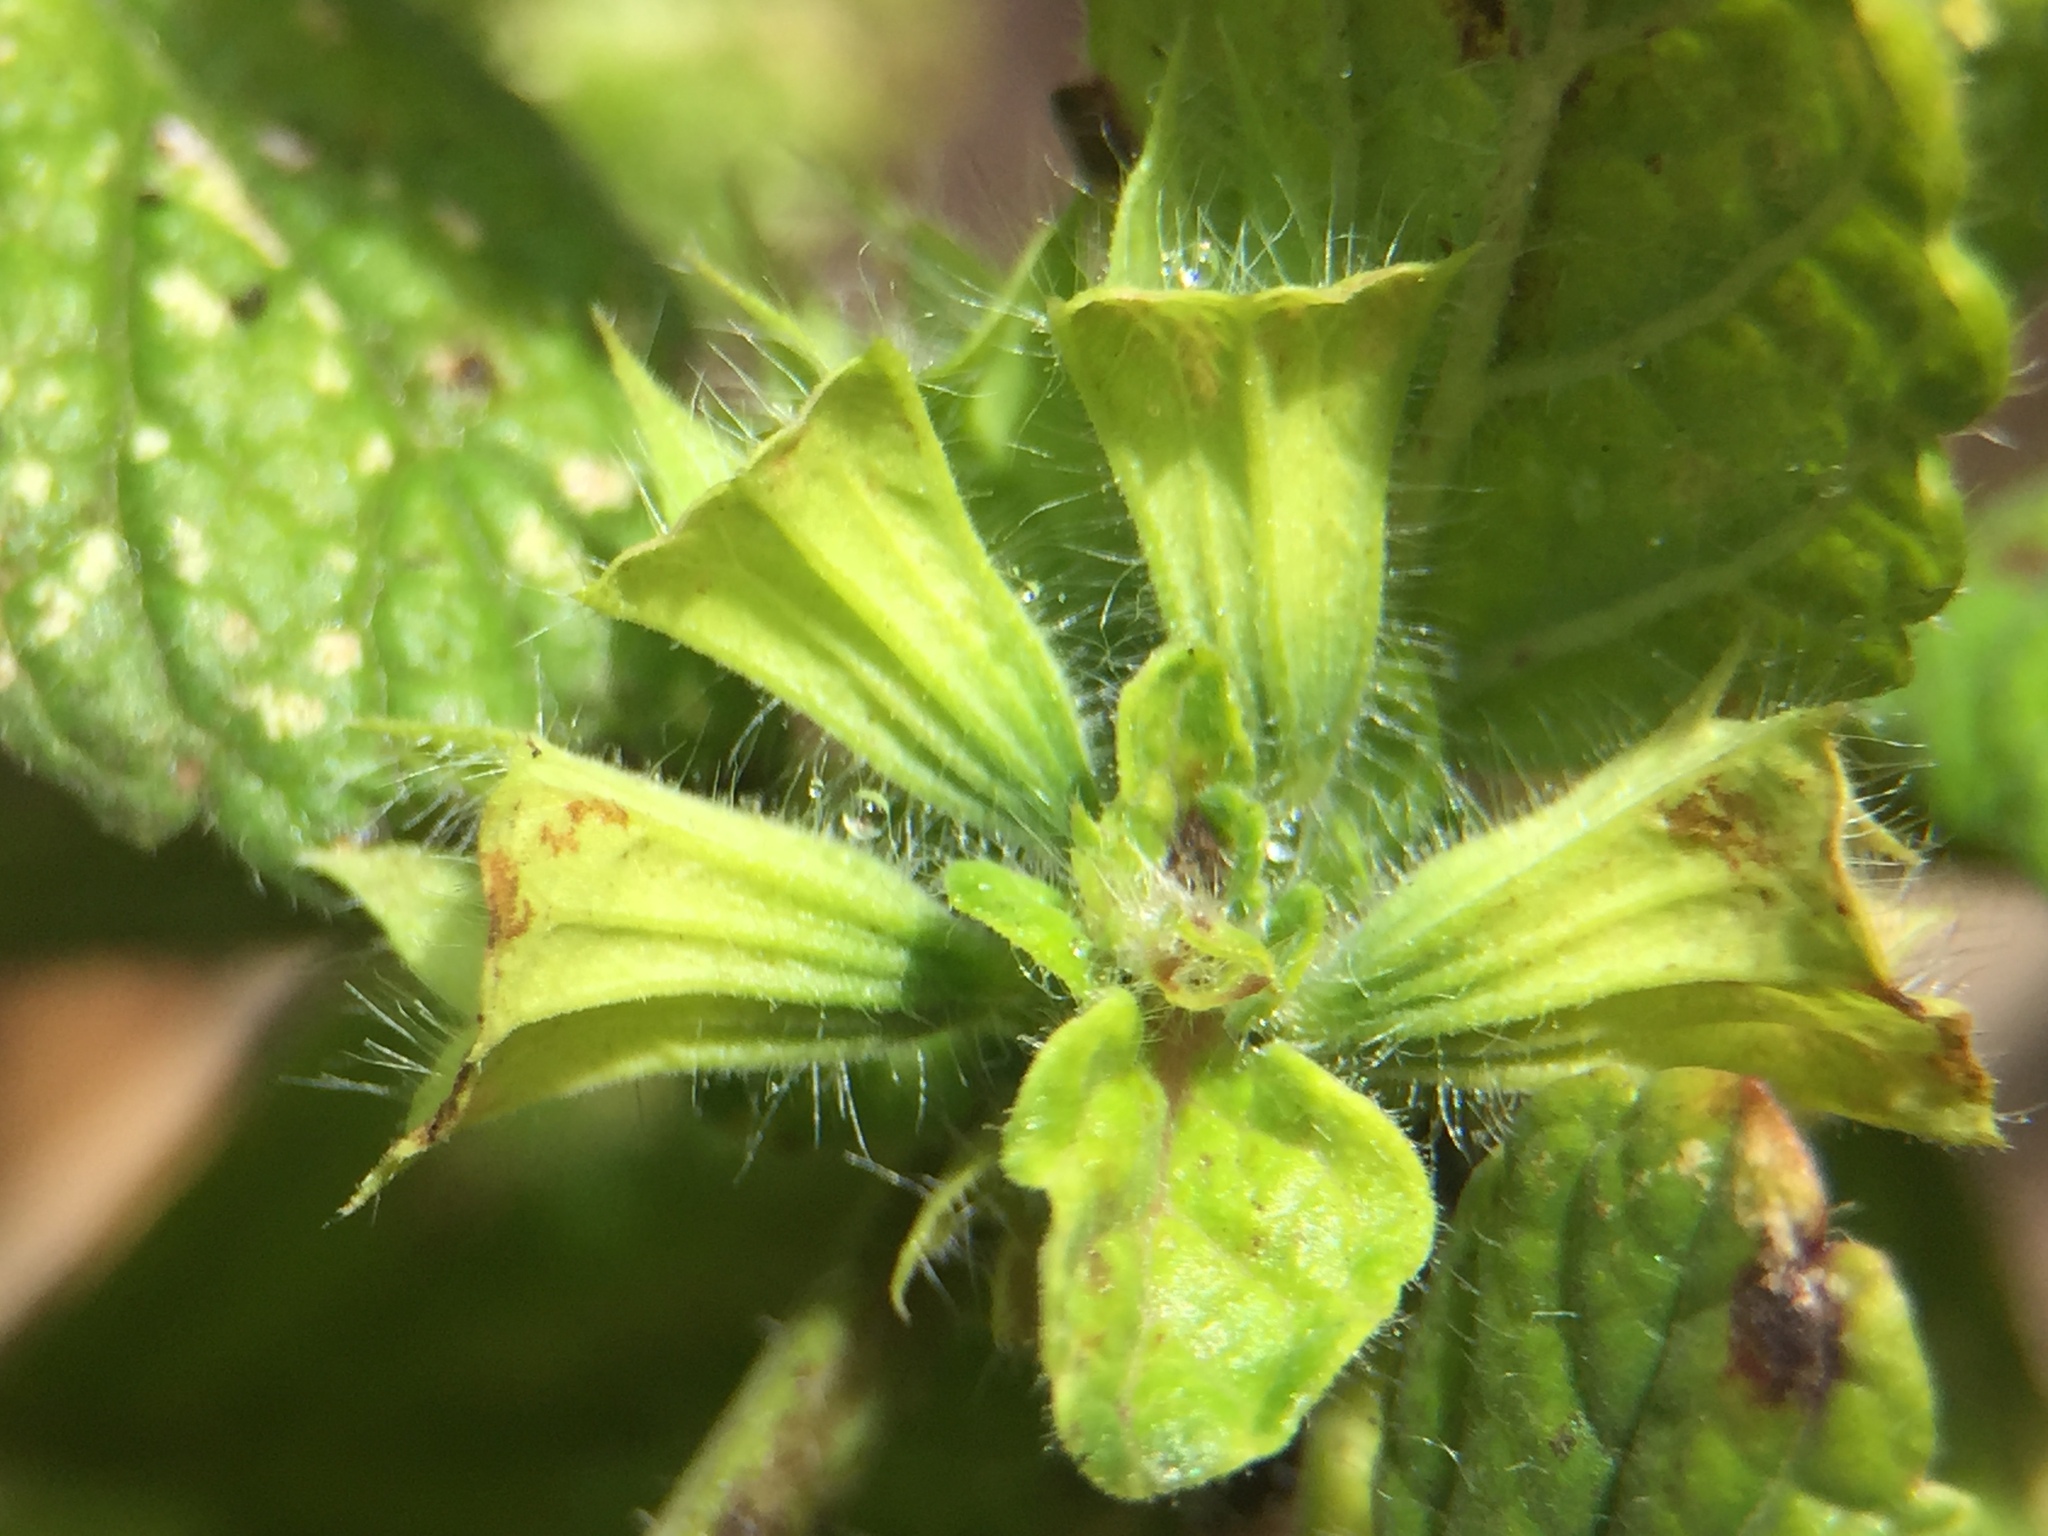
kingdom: Plantae
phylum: Tracheophyta
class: Magnoliopsida
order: Lamiales
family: Lamiaceae
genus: Melissa
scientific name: Melissa officinalis
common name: Balm
